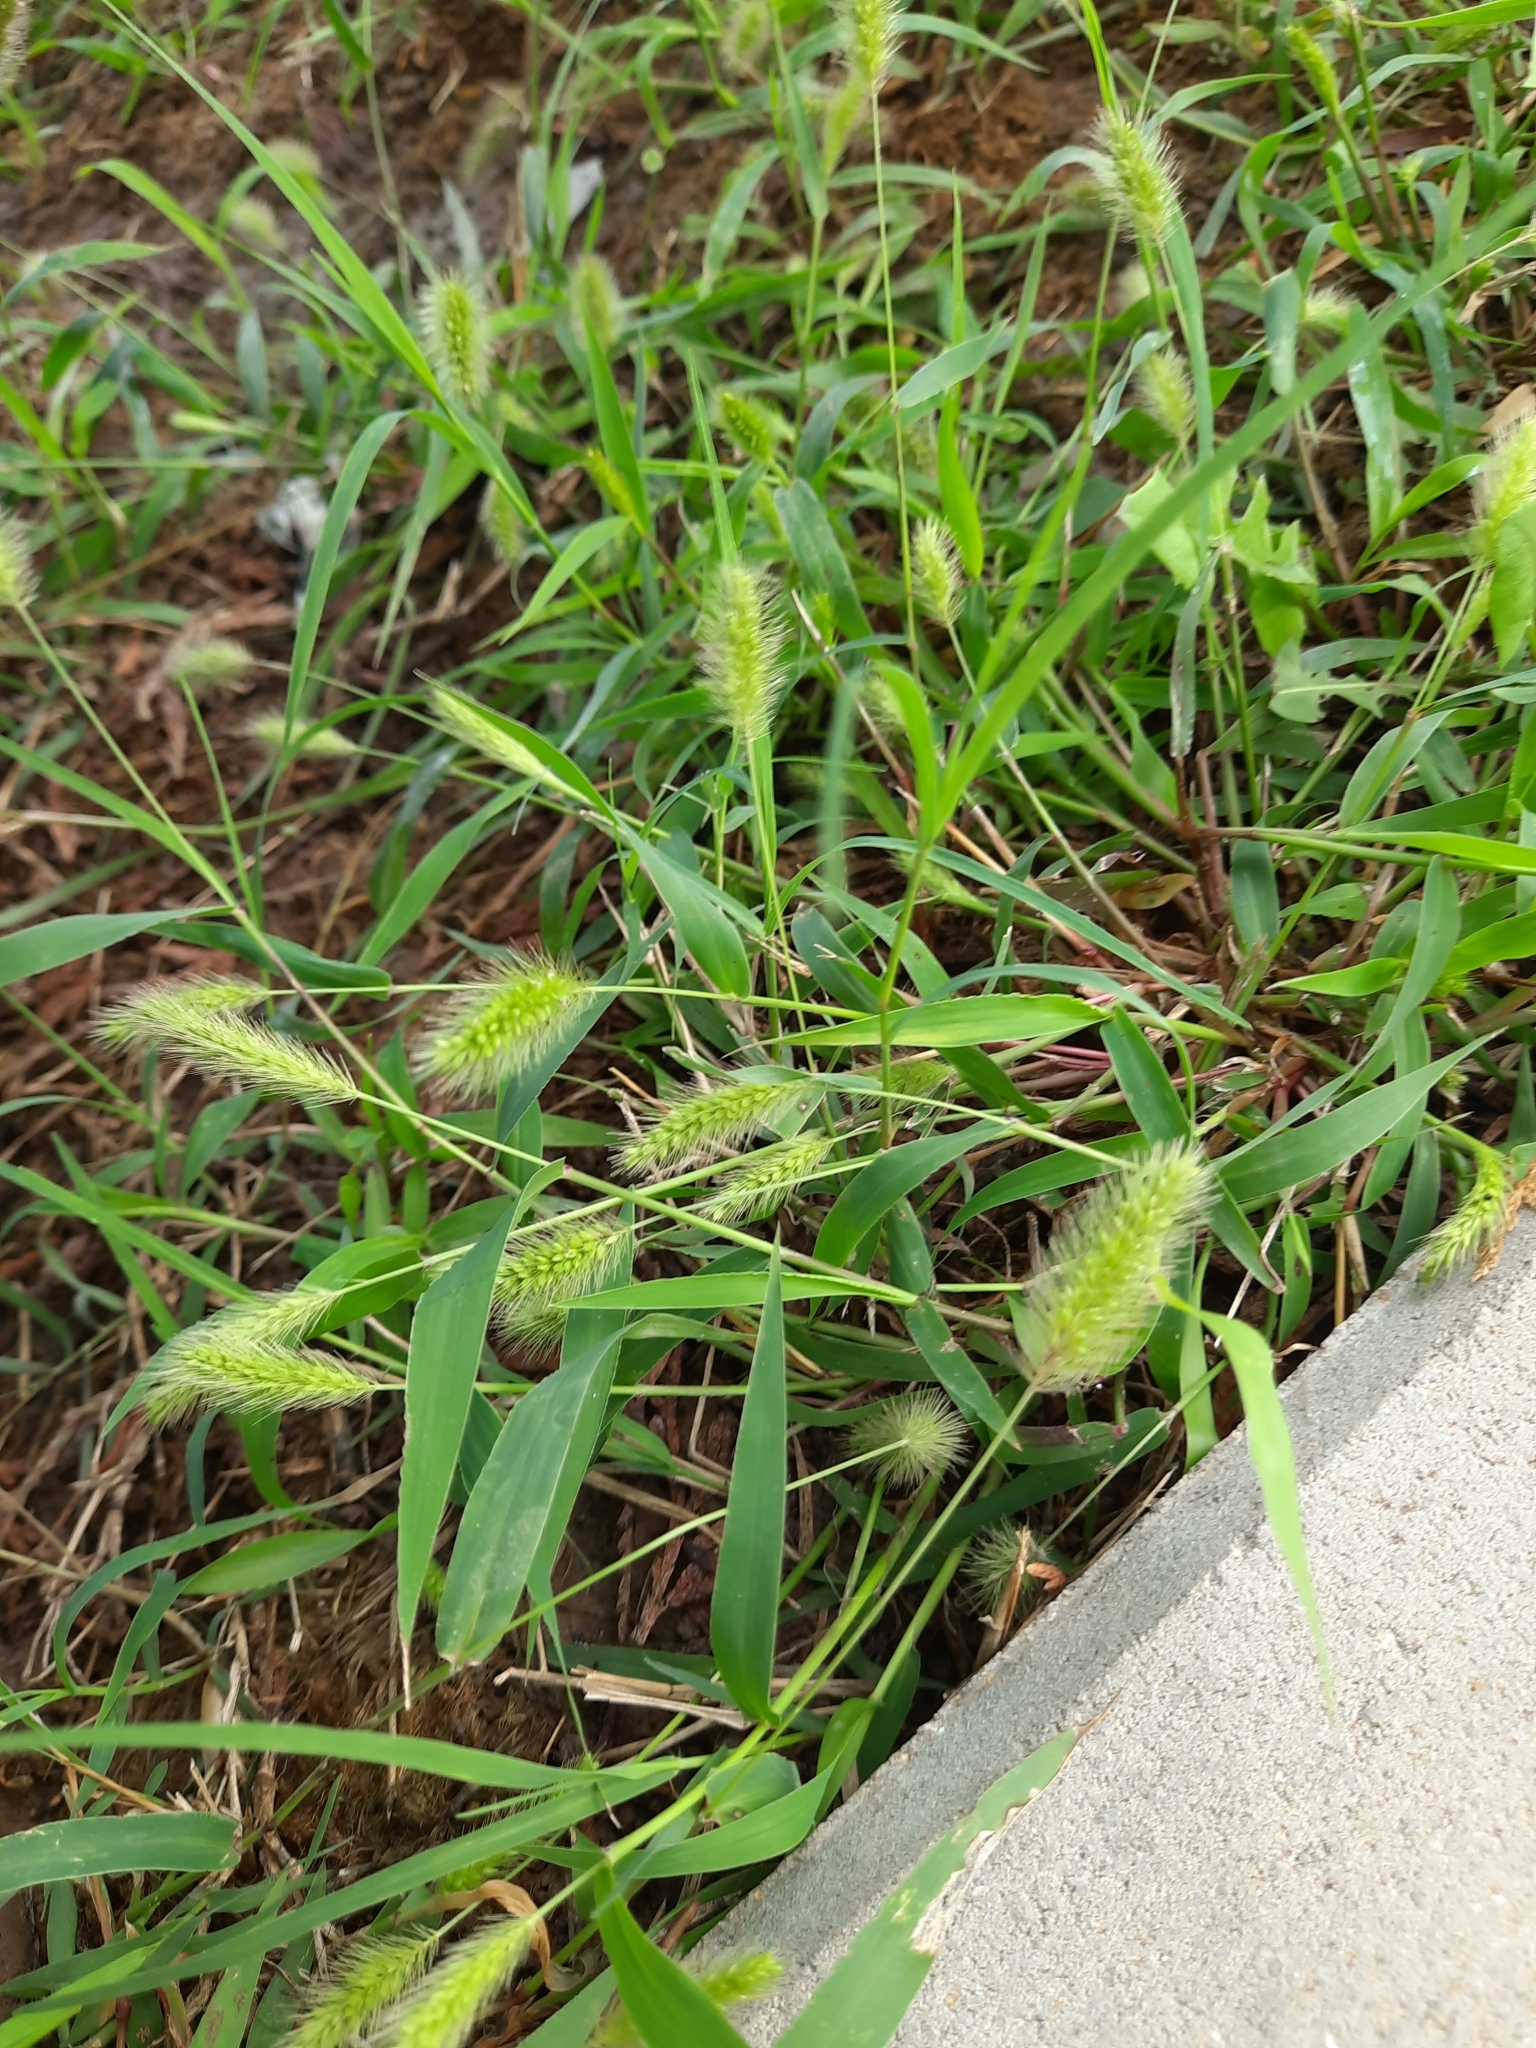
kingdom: Plantae
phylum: Tracheophyta
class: Liliopsida
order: Poales
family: Poaceae
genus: Setaria
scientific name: Setaria viridis
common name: Green bristlegrass
